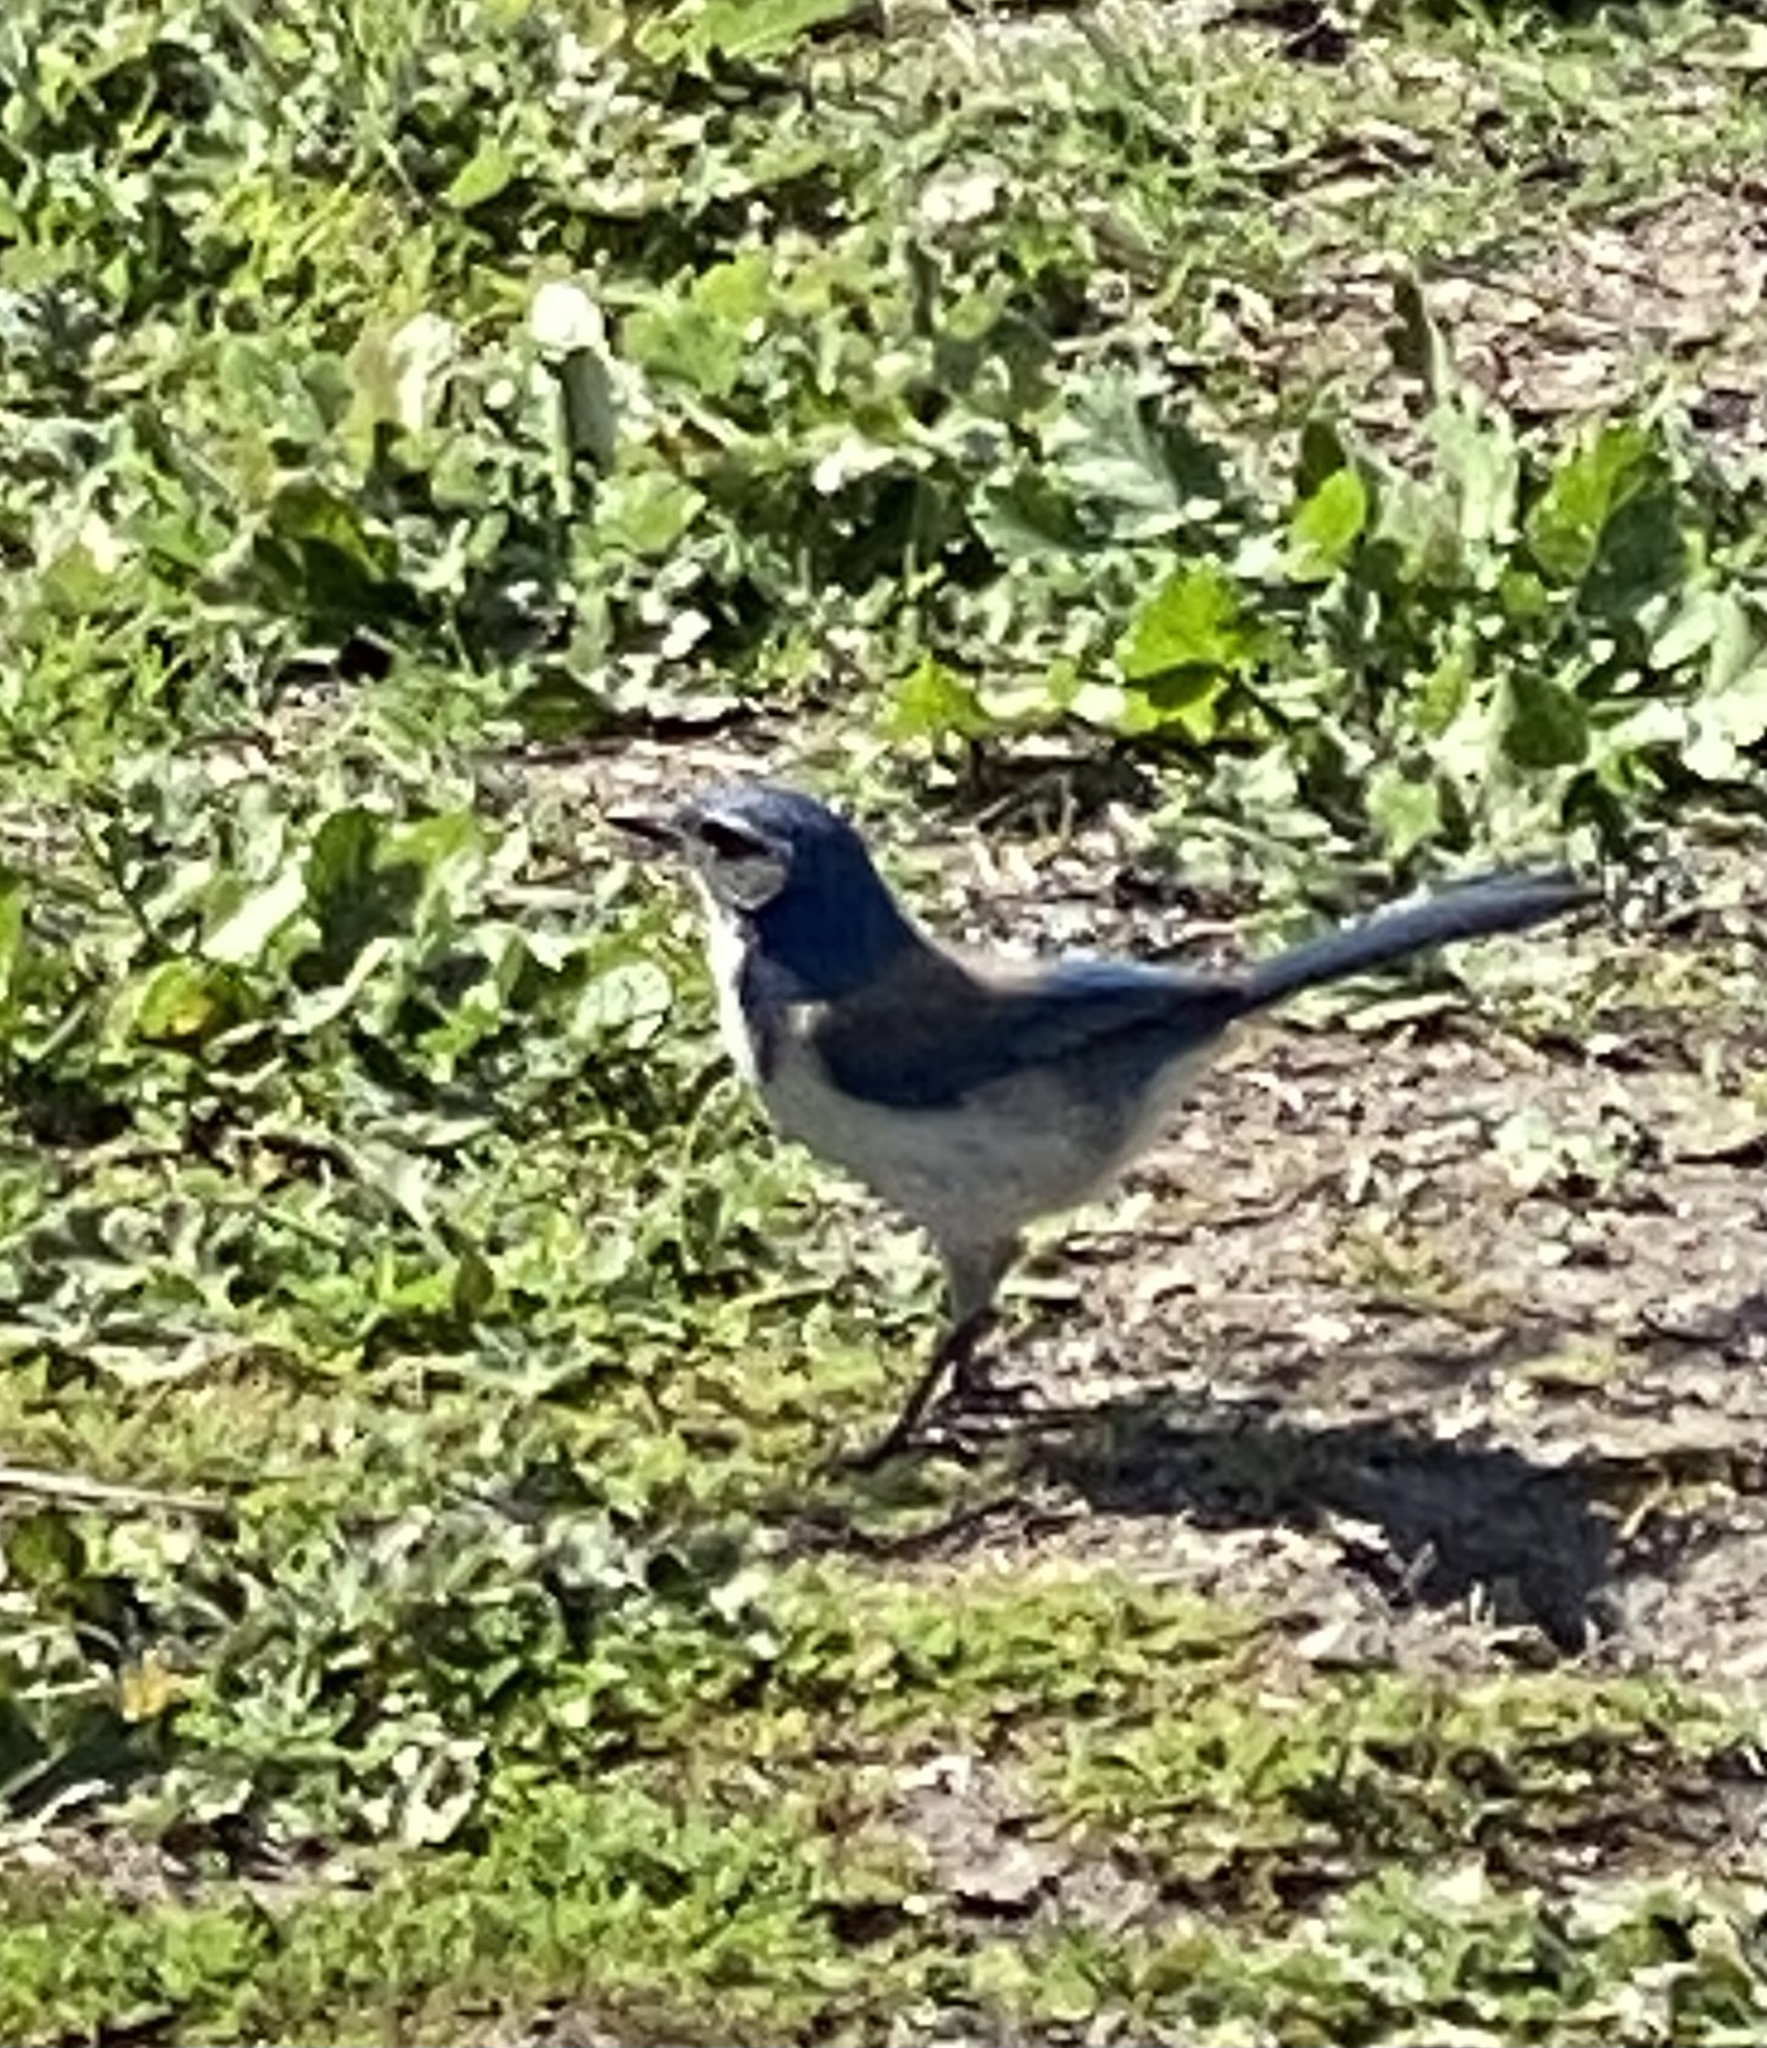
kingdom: Animalia
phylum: Chordata
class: Aves
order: Passeriformes
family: Corvidae
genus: Aphelocoma
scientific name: Aphelocoma californica
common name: California scrub-jay
